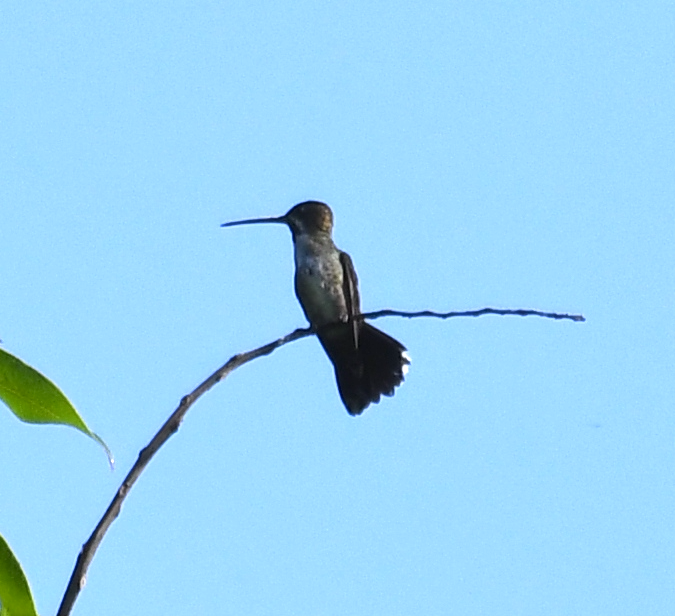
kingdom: Animalia
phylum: Chordata
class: Aves
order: Apodiformes
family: Trochilidae
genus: Heliomaster
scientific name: Heliomaster longirostris
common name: Long-billed starthroat
